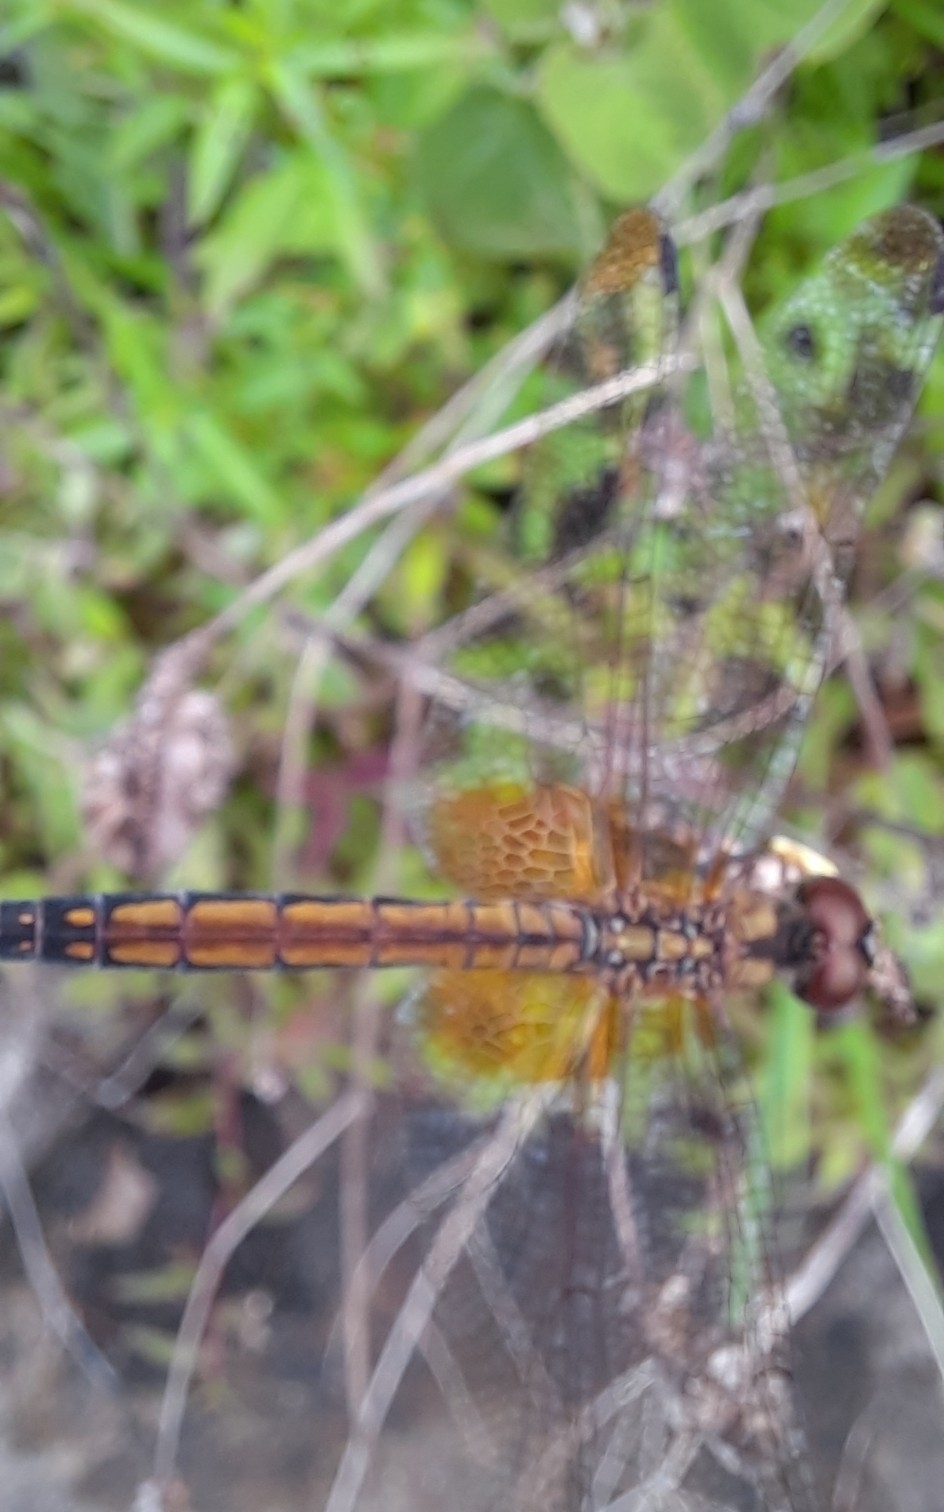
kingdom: Animalia
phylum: Arthropoda
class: Insecta
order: Odonata
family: Libellulidae
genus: Trithemis
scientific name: Trithemis aurora
